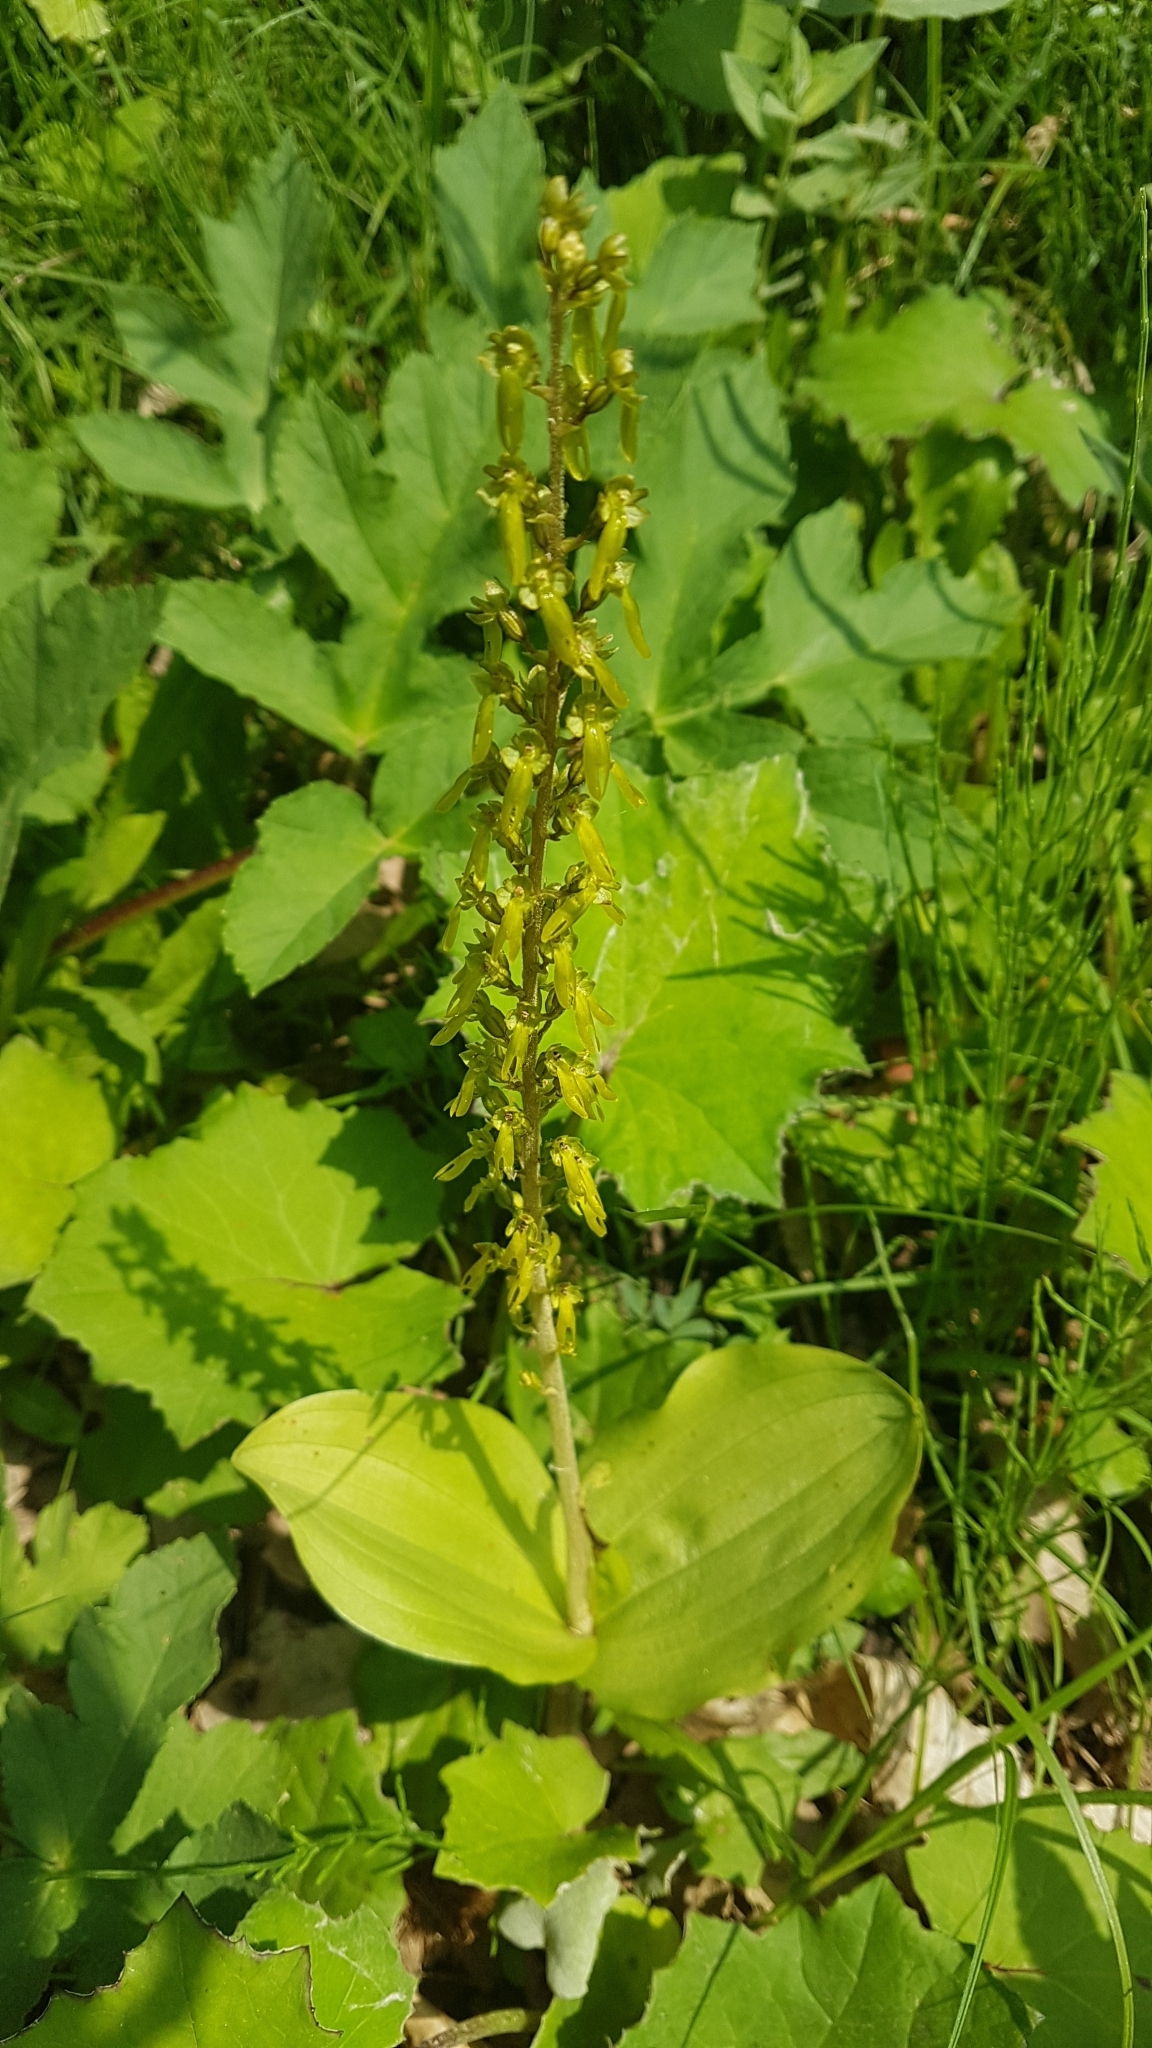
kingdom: Plantae
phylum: Tracheophyta
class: Liliopsida
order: Asparagales
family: Orchidaceae
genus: Neottia
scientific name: Neottia ovata
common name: Common twayblade
